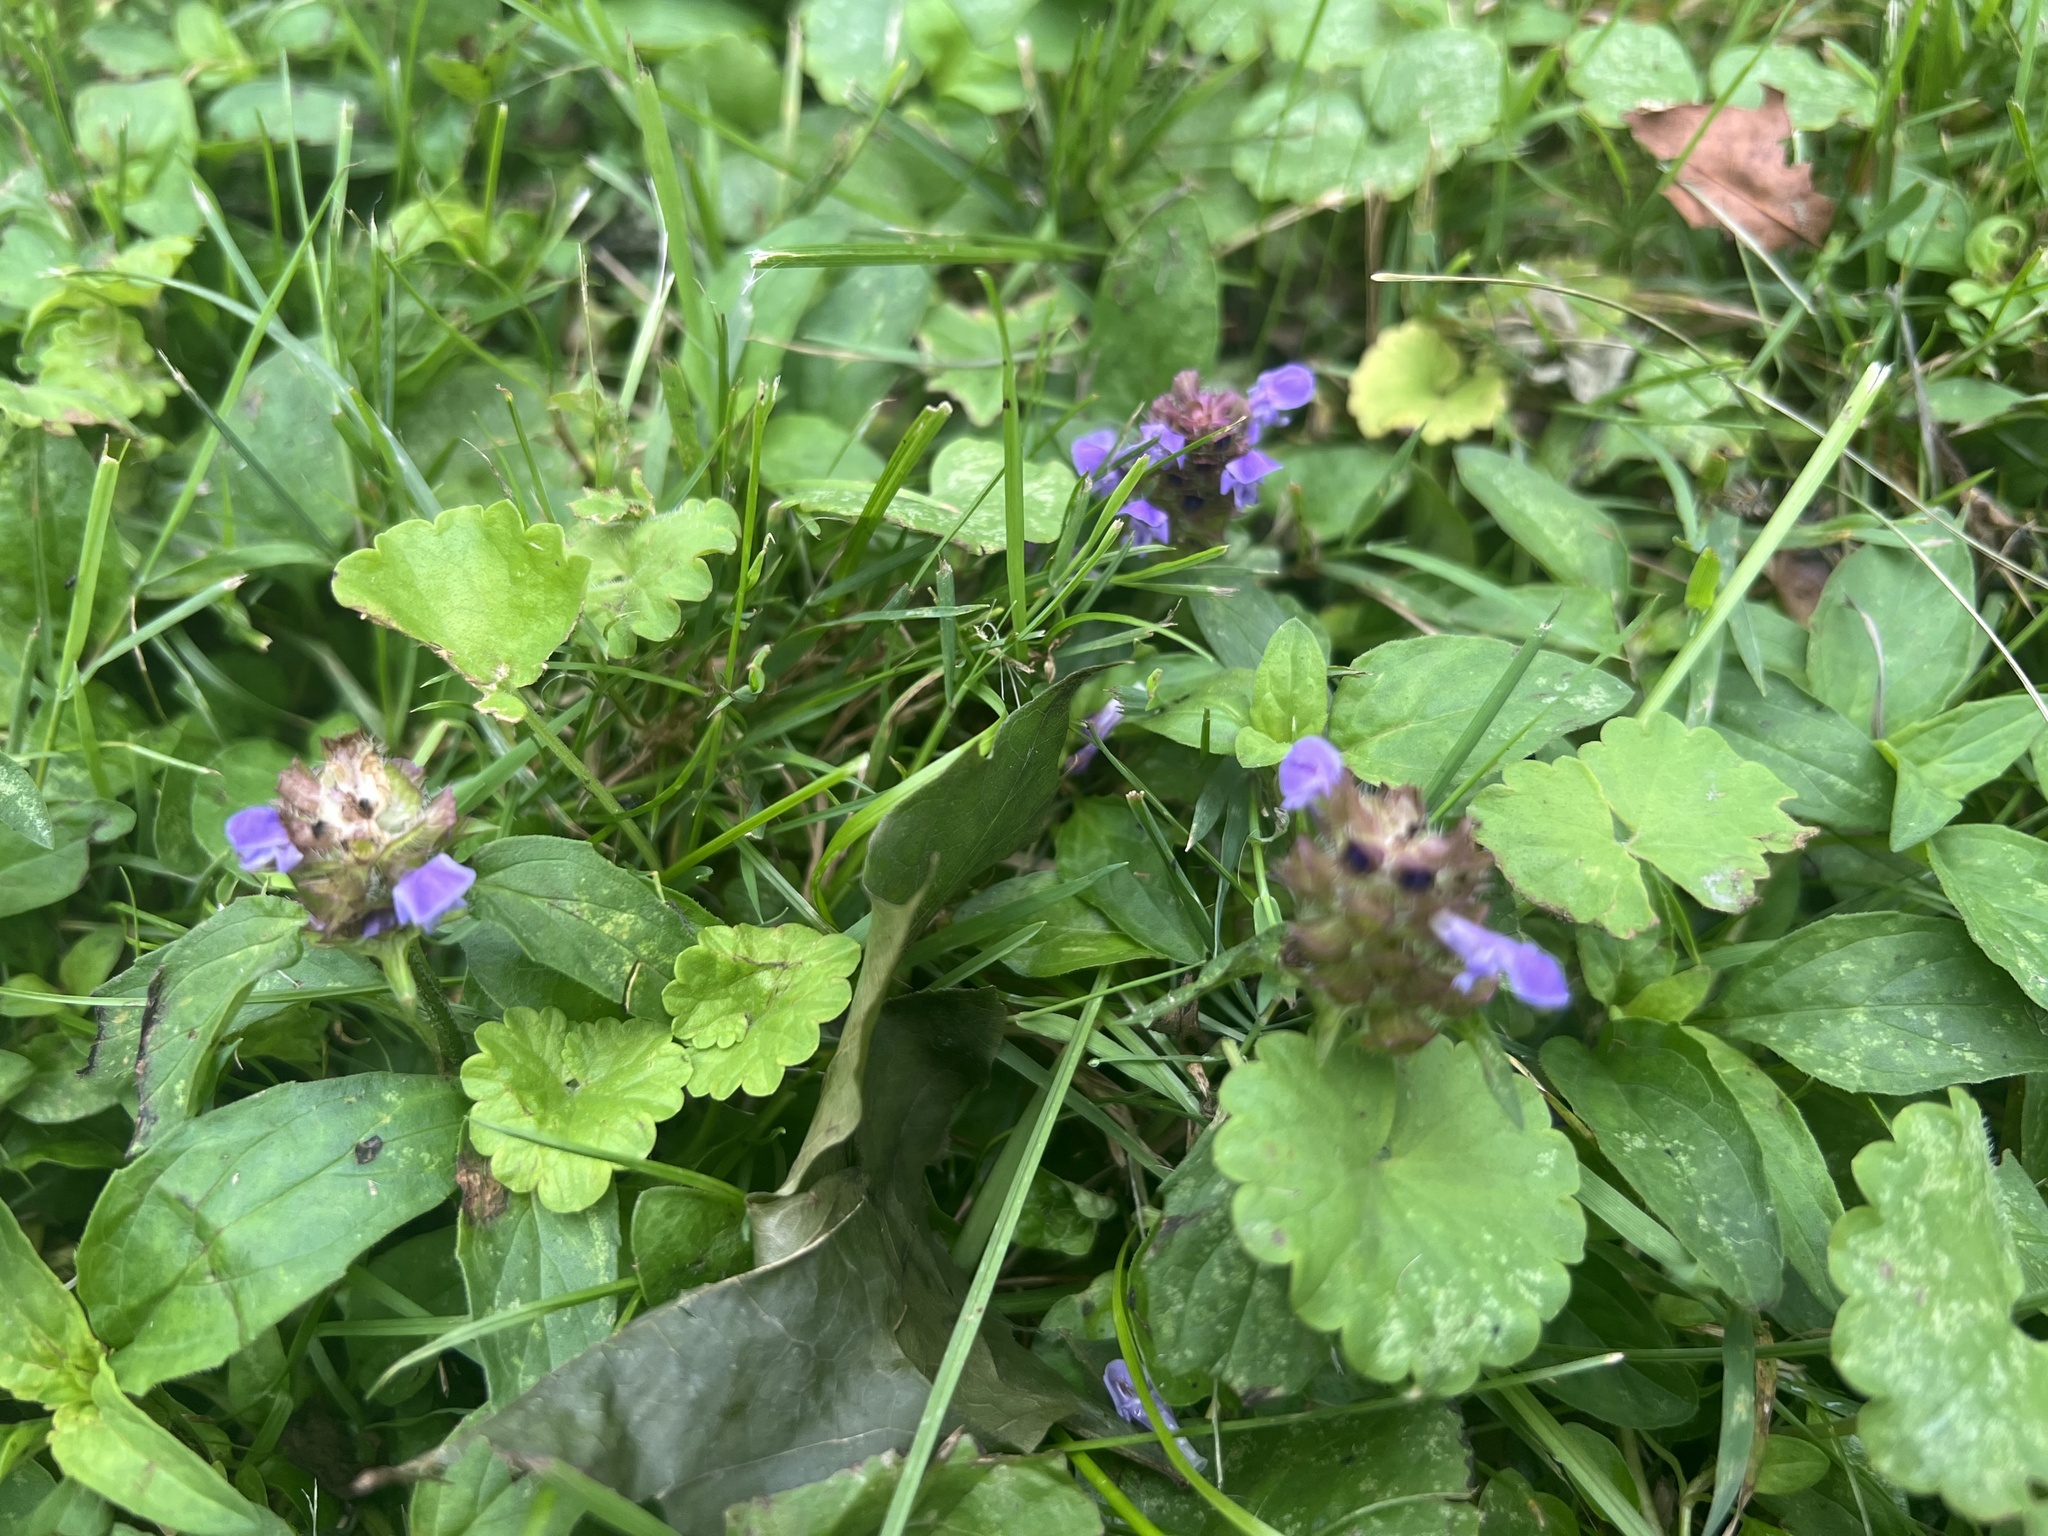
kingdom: Plantae
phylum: Tracheophyta
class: Magnoliopsida
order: Lamiales
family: Lamiaceae
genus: Prunella
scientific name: Prunella vulgaris
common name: Heal-all
